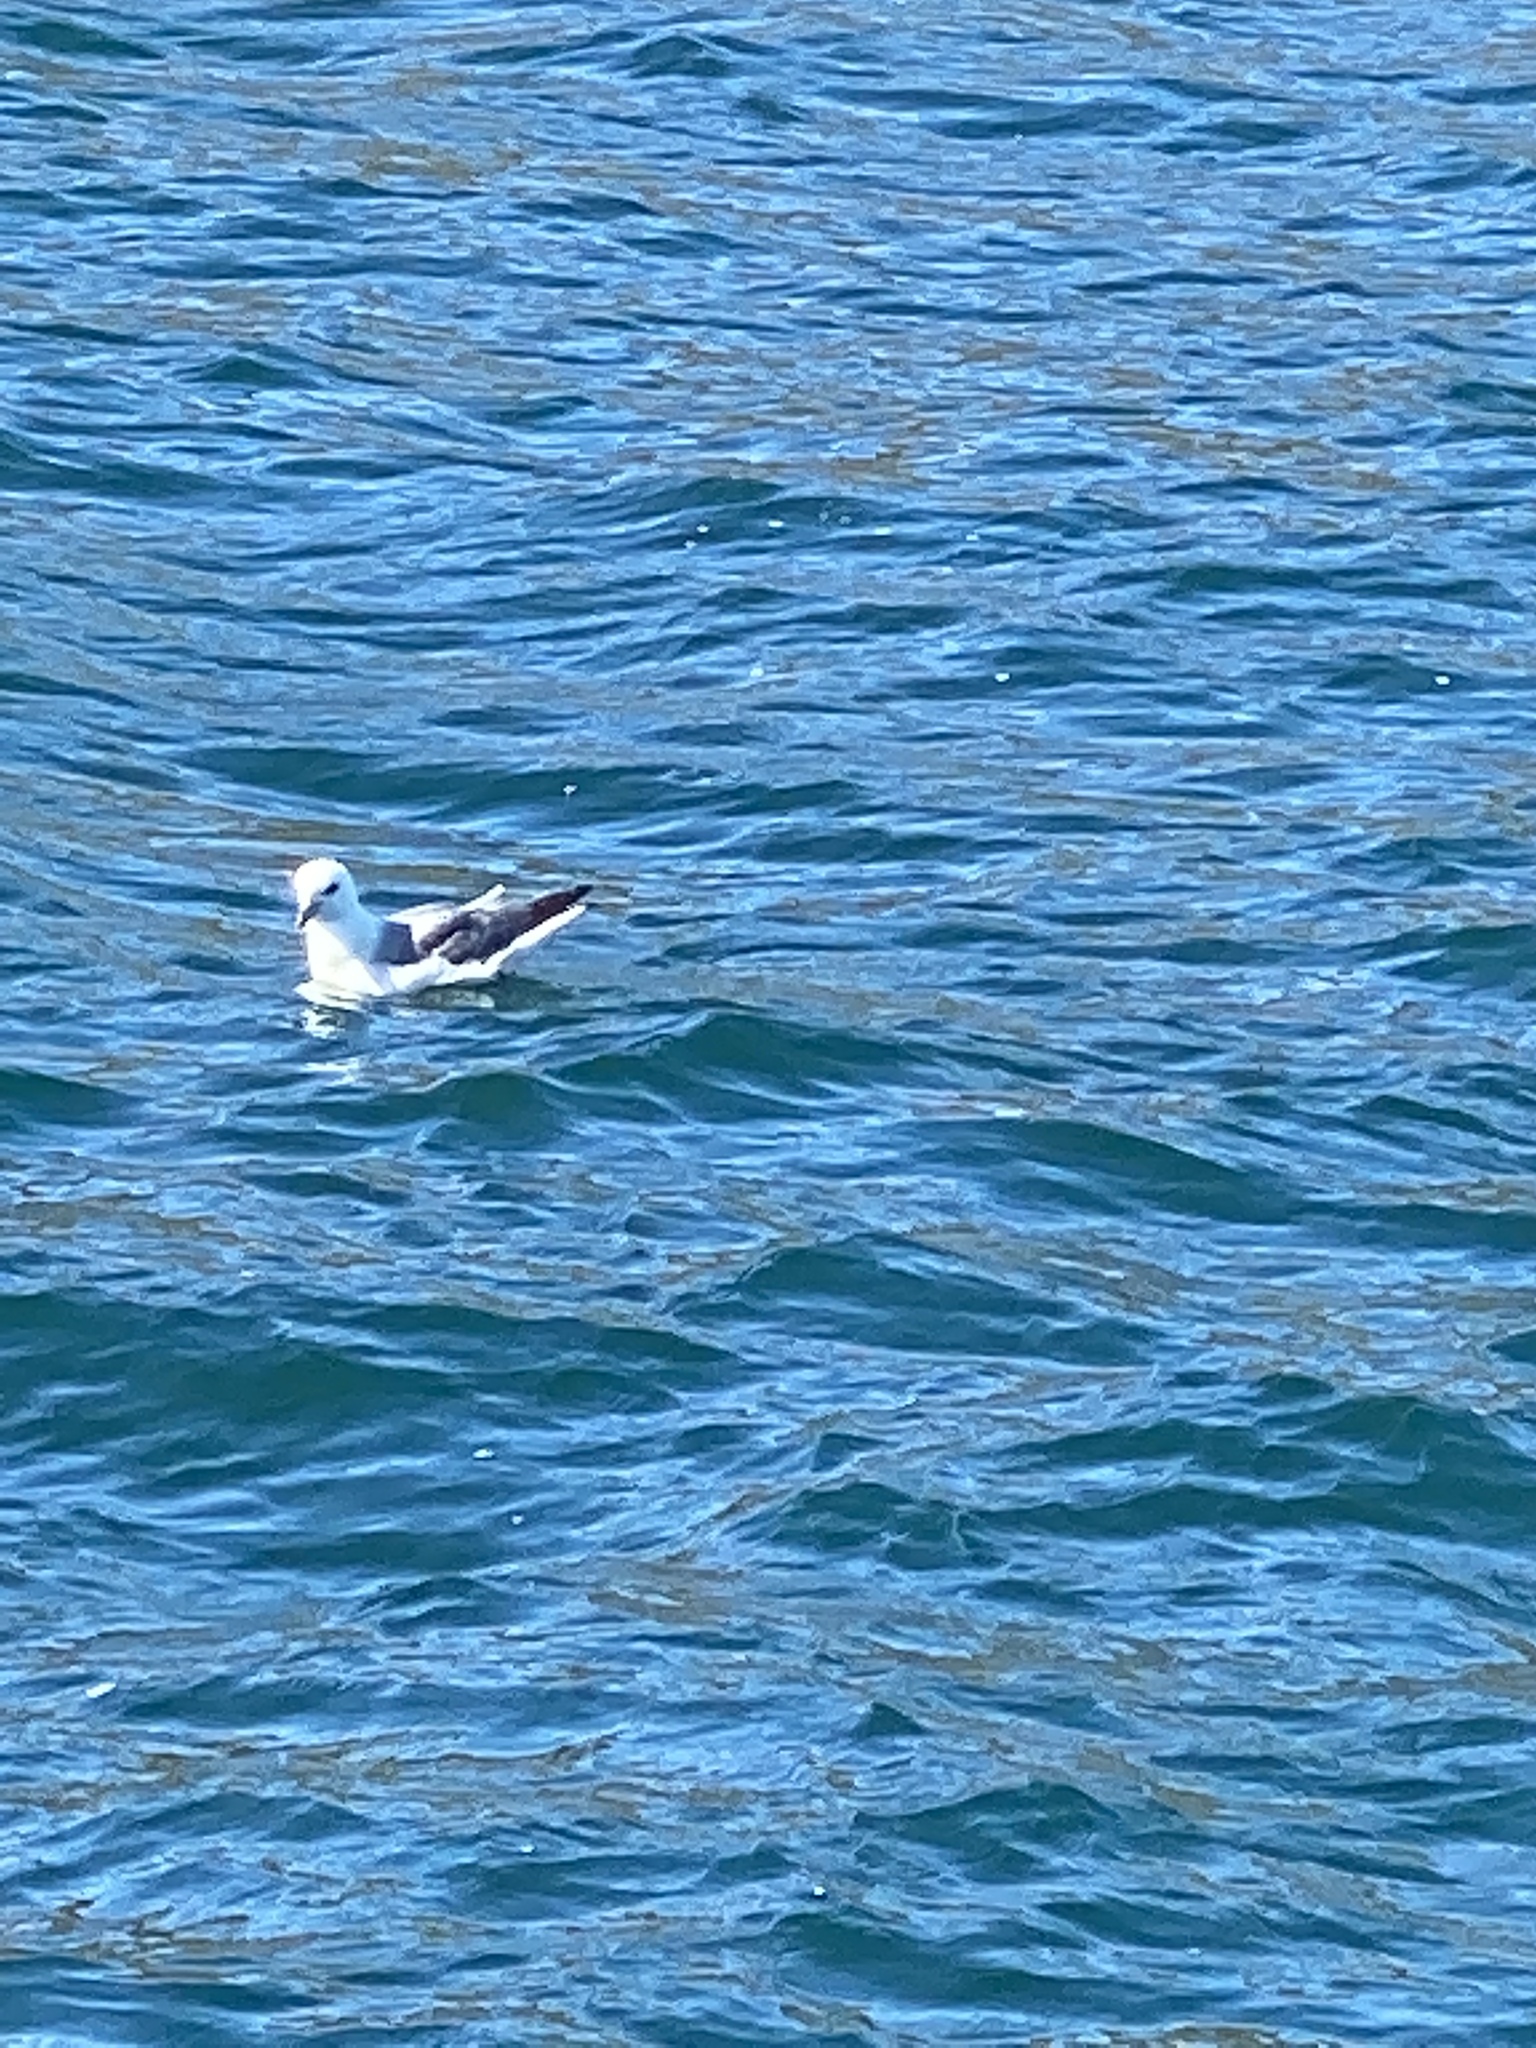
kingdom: Animalia
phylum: Chordata
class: Aves
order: Procellariiformes
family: Procellariidae
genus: Fulmarus
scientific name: Fulmarus glacialis
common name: Northern fulmar
